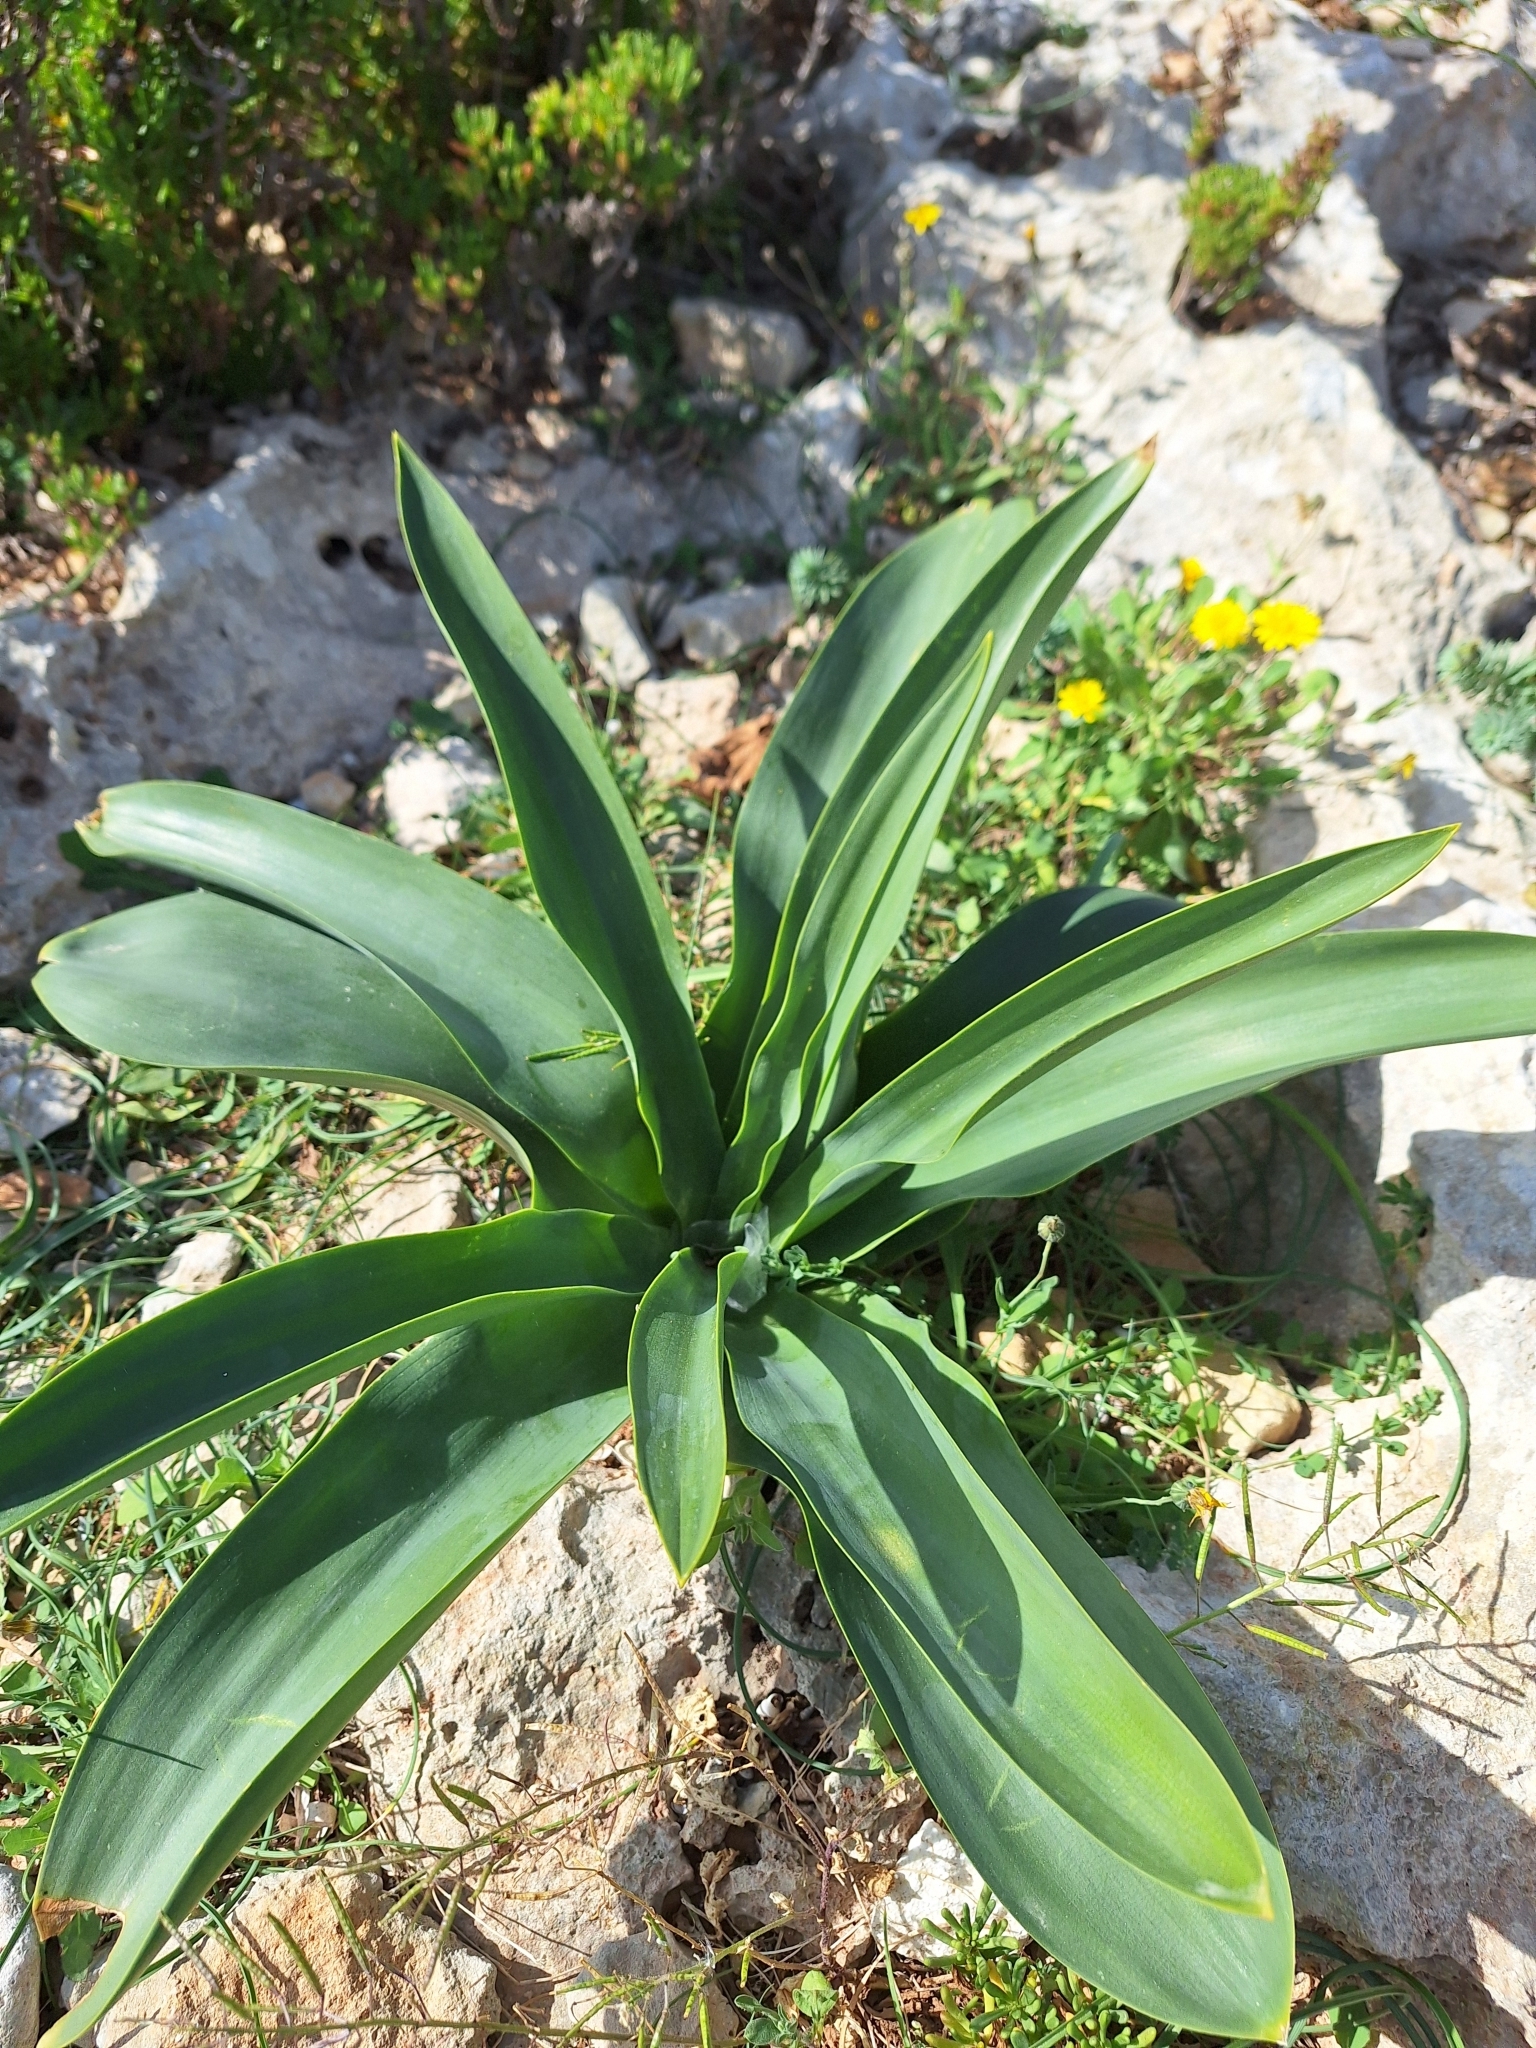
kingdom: Plantae
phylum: Tracheophyta
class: Liliopsida
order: Asparagales
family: Asparagaceae
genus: Drimia
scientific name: Drimia pancration
